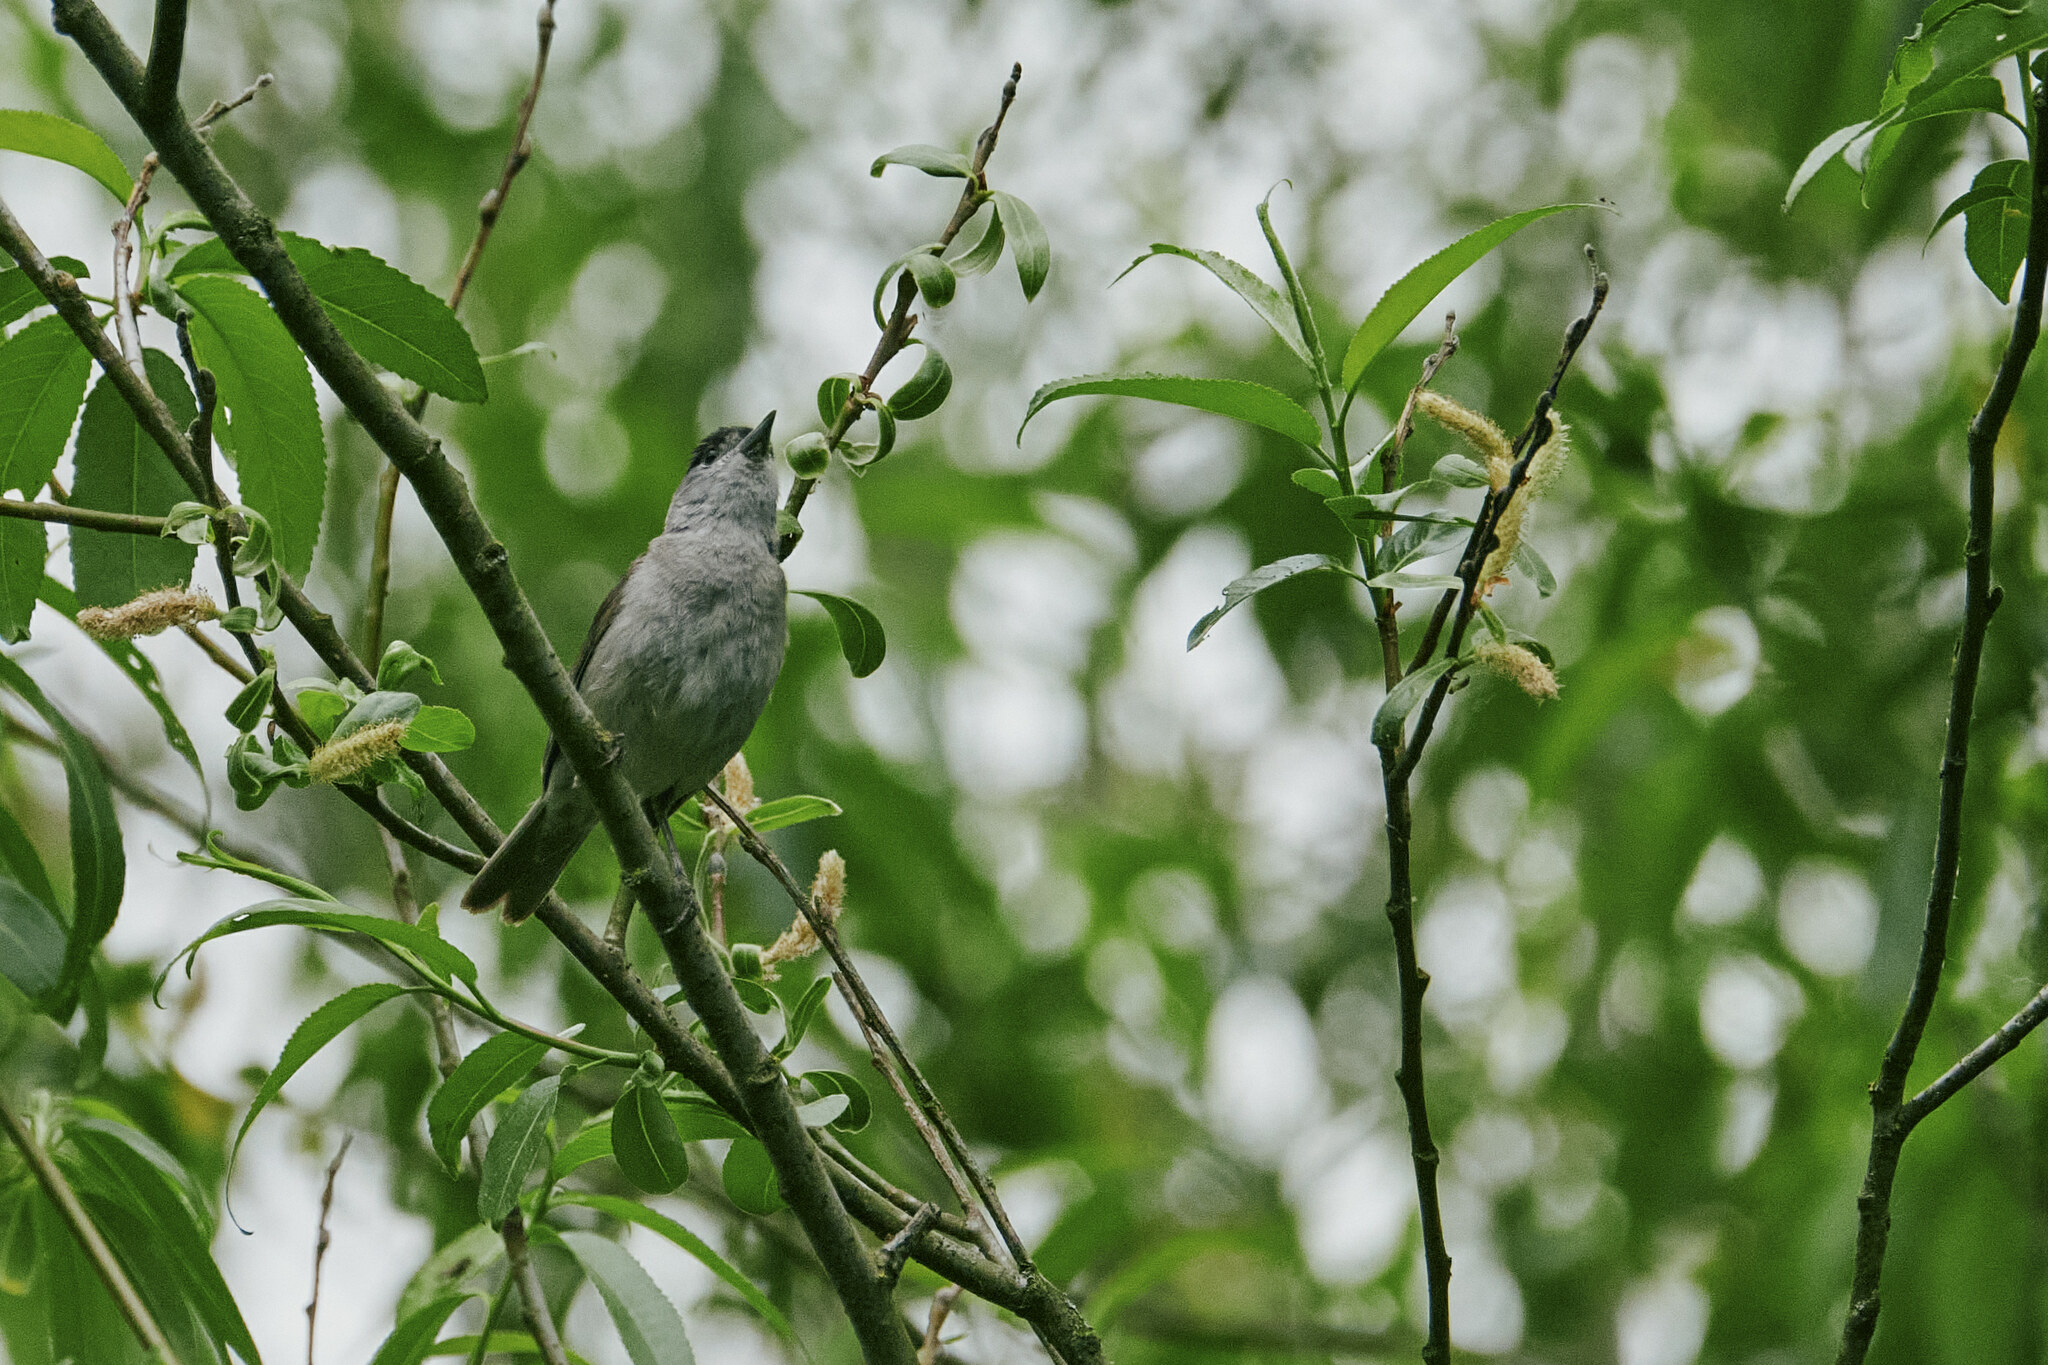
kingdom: Animalia
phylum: Chordata
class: Aves
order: Passeriformes
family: Sylviidae
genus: Sylvia
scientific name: Sylvia atricapilla
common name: Eurasian blackcap
